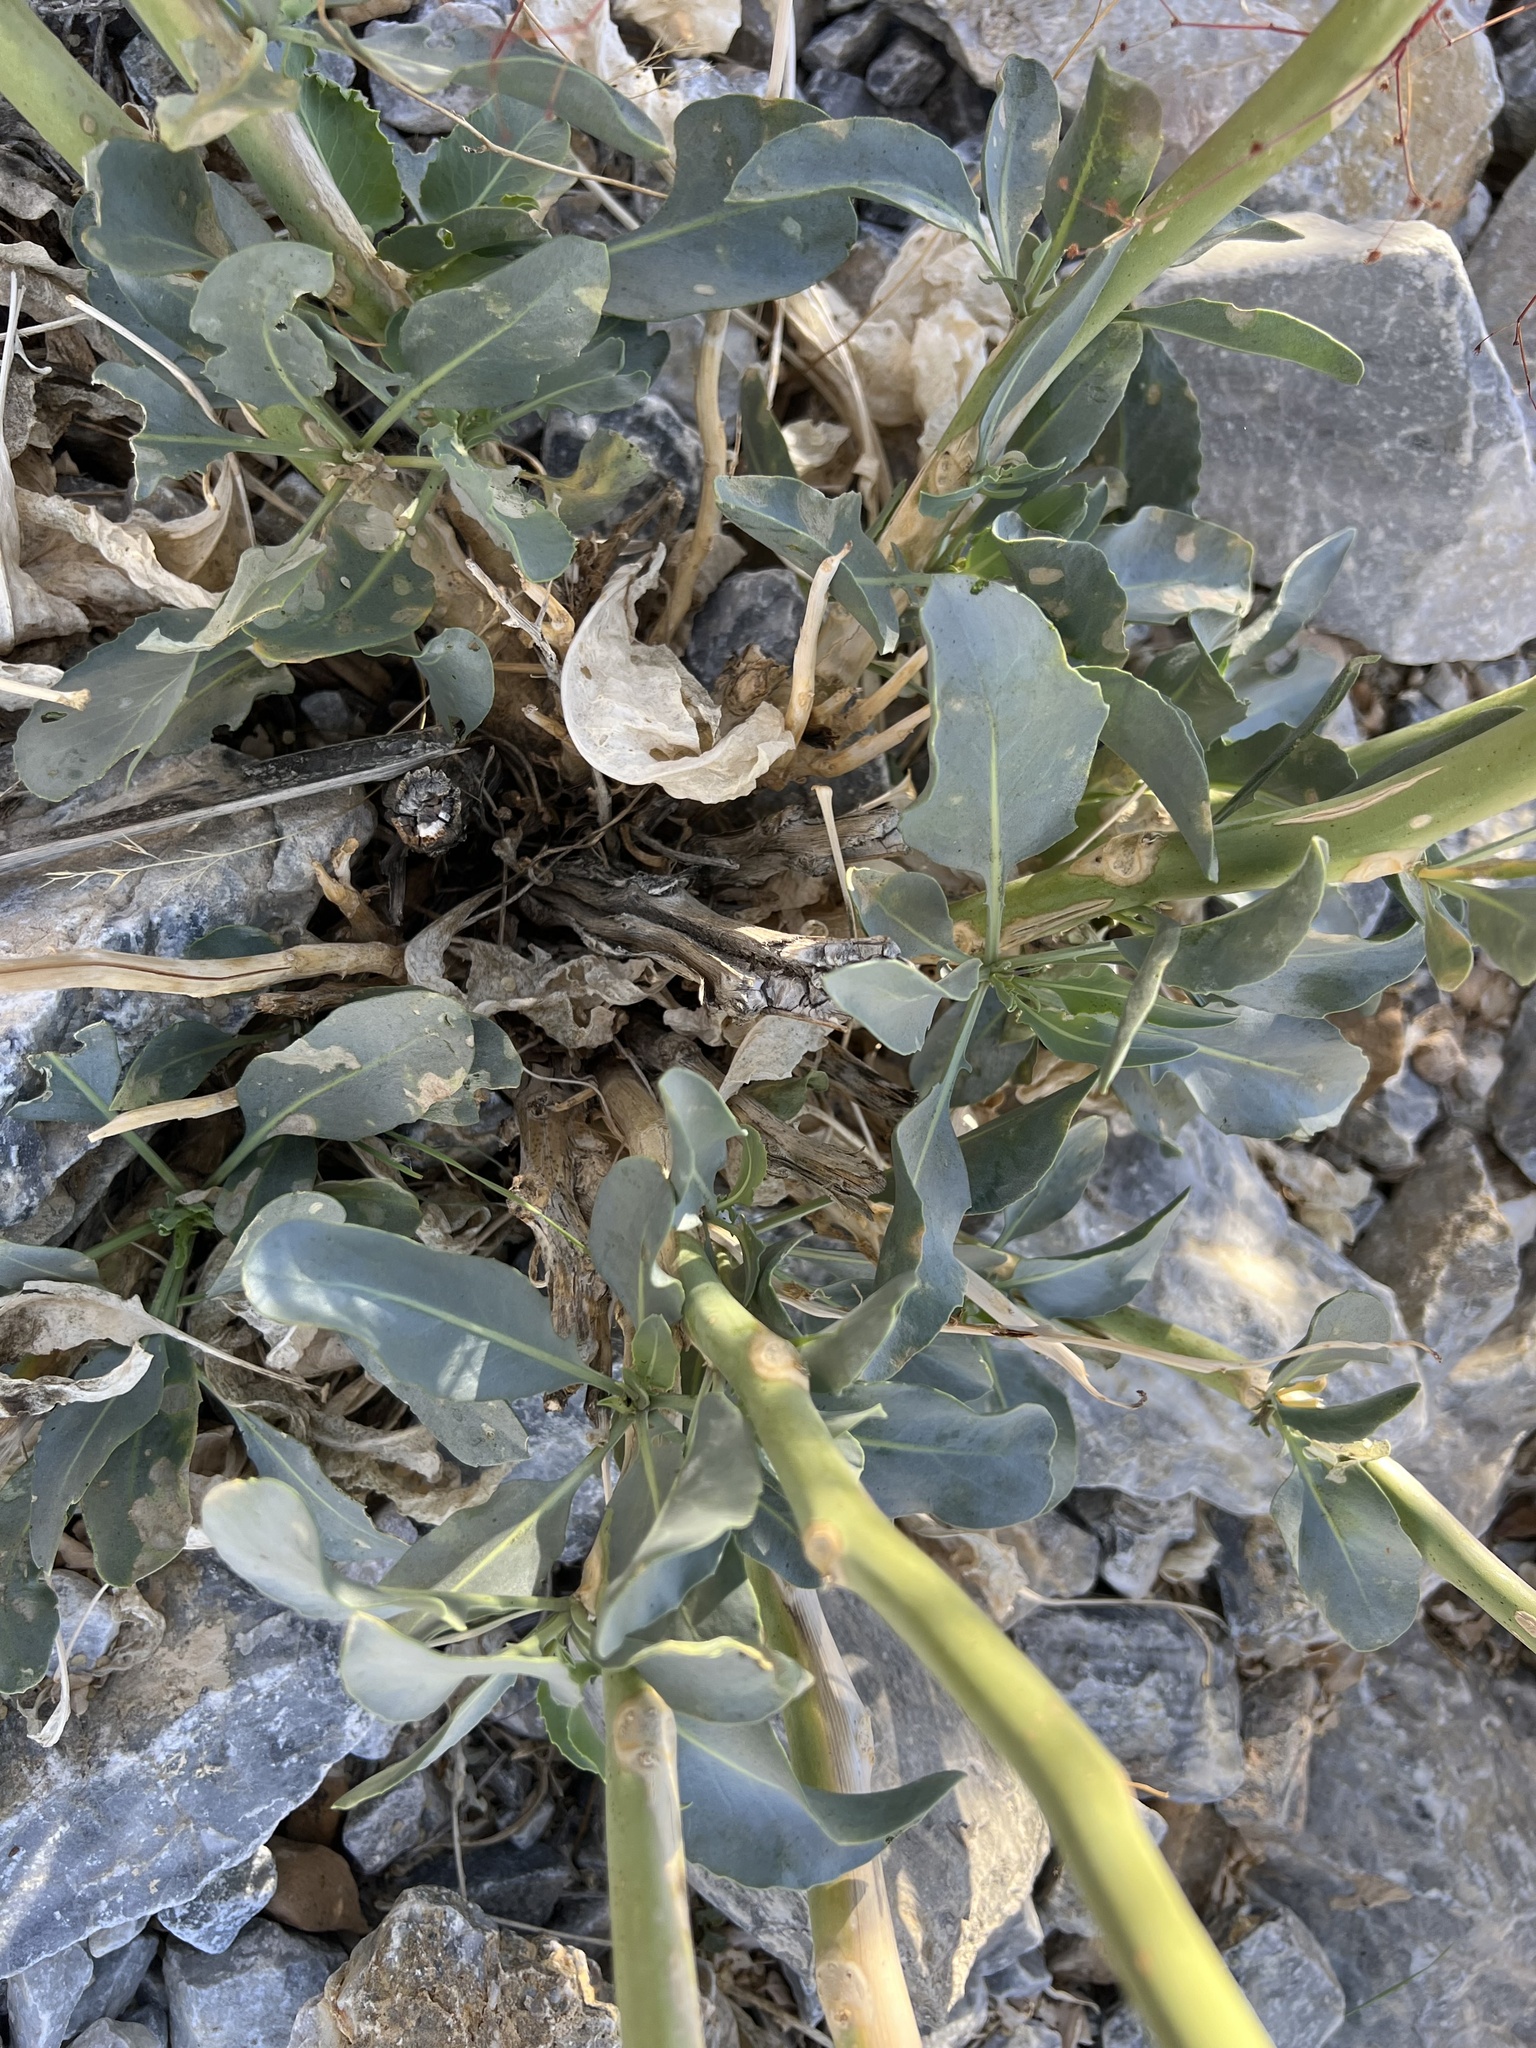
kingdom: Plantae
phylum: Tracheophyta
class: Magnoliopsida
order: Brassicales
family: Brassicaceae
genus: Stanleya
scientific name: Stanleya elata
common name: Panamint prince's plume
